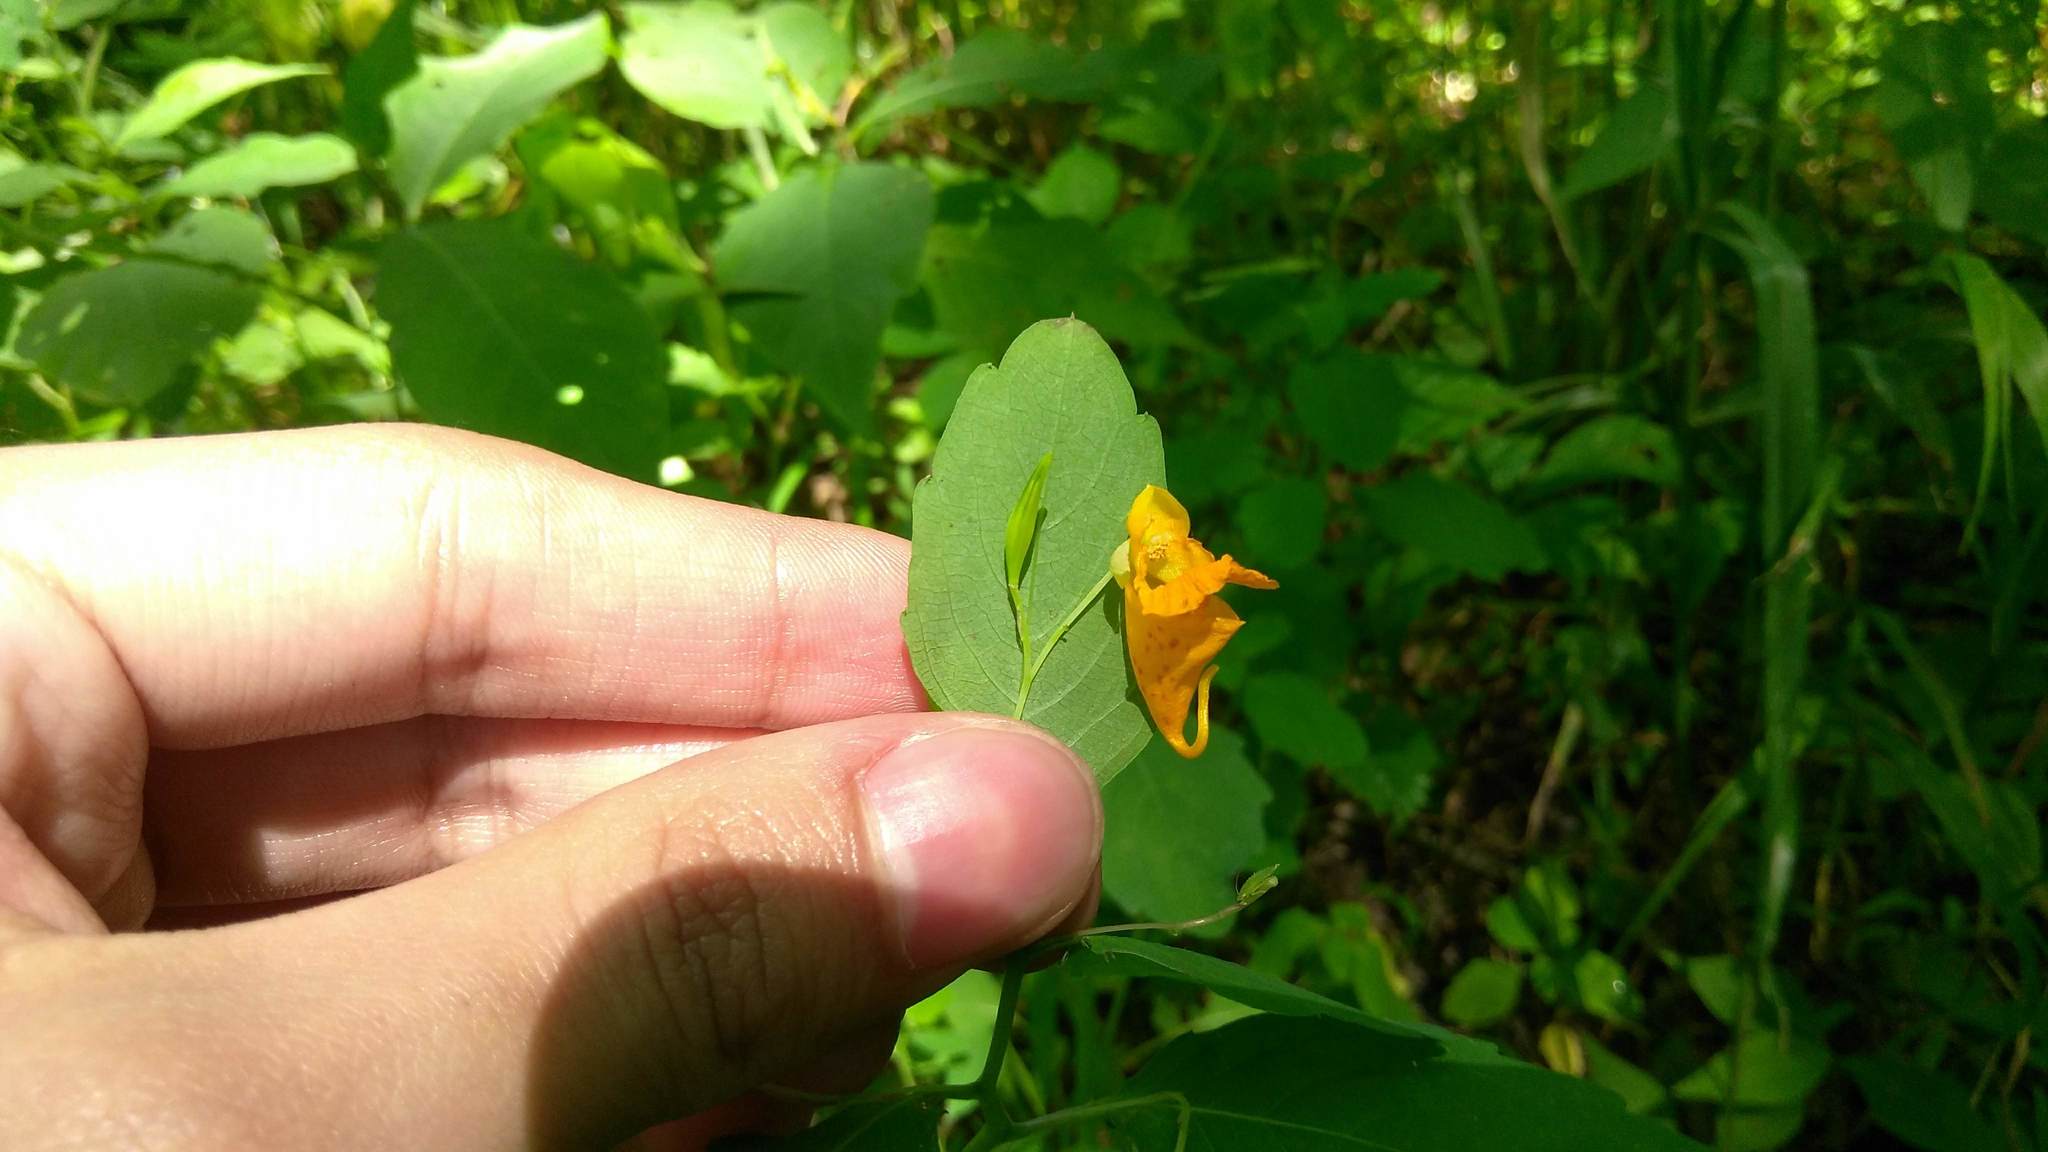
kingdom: Plantae
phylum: Tracheophyta
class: Magnoliopsida
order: Ericales
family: Balsaminaceae
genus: Impatiens
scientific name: Impatiens capensis
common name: Orange balsam
